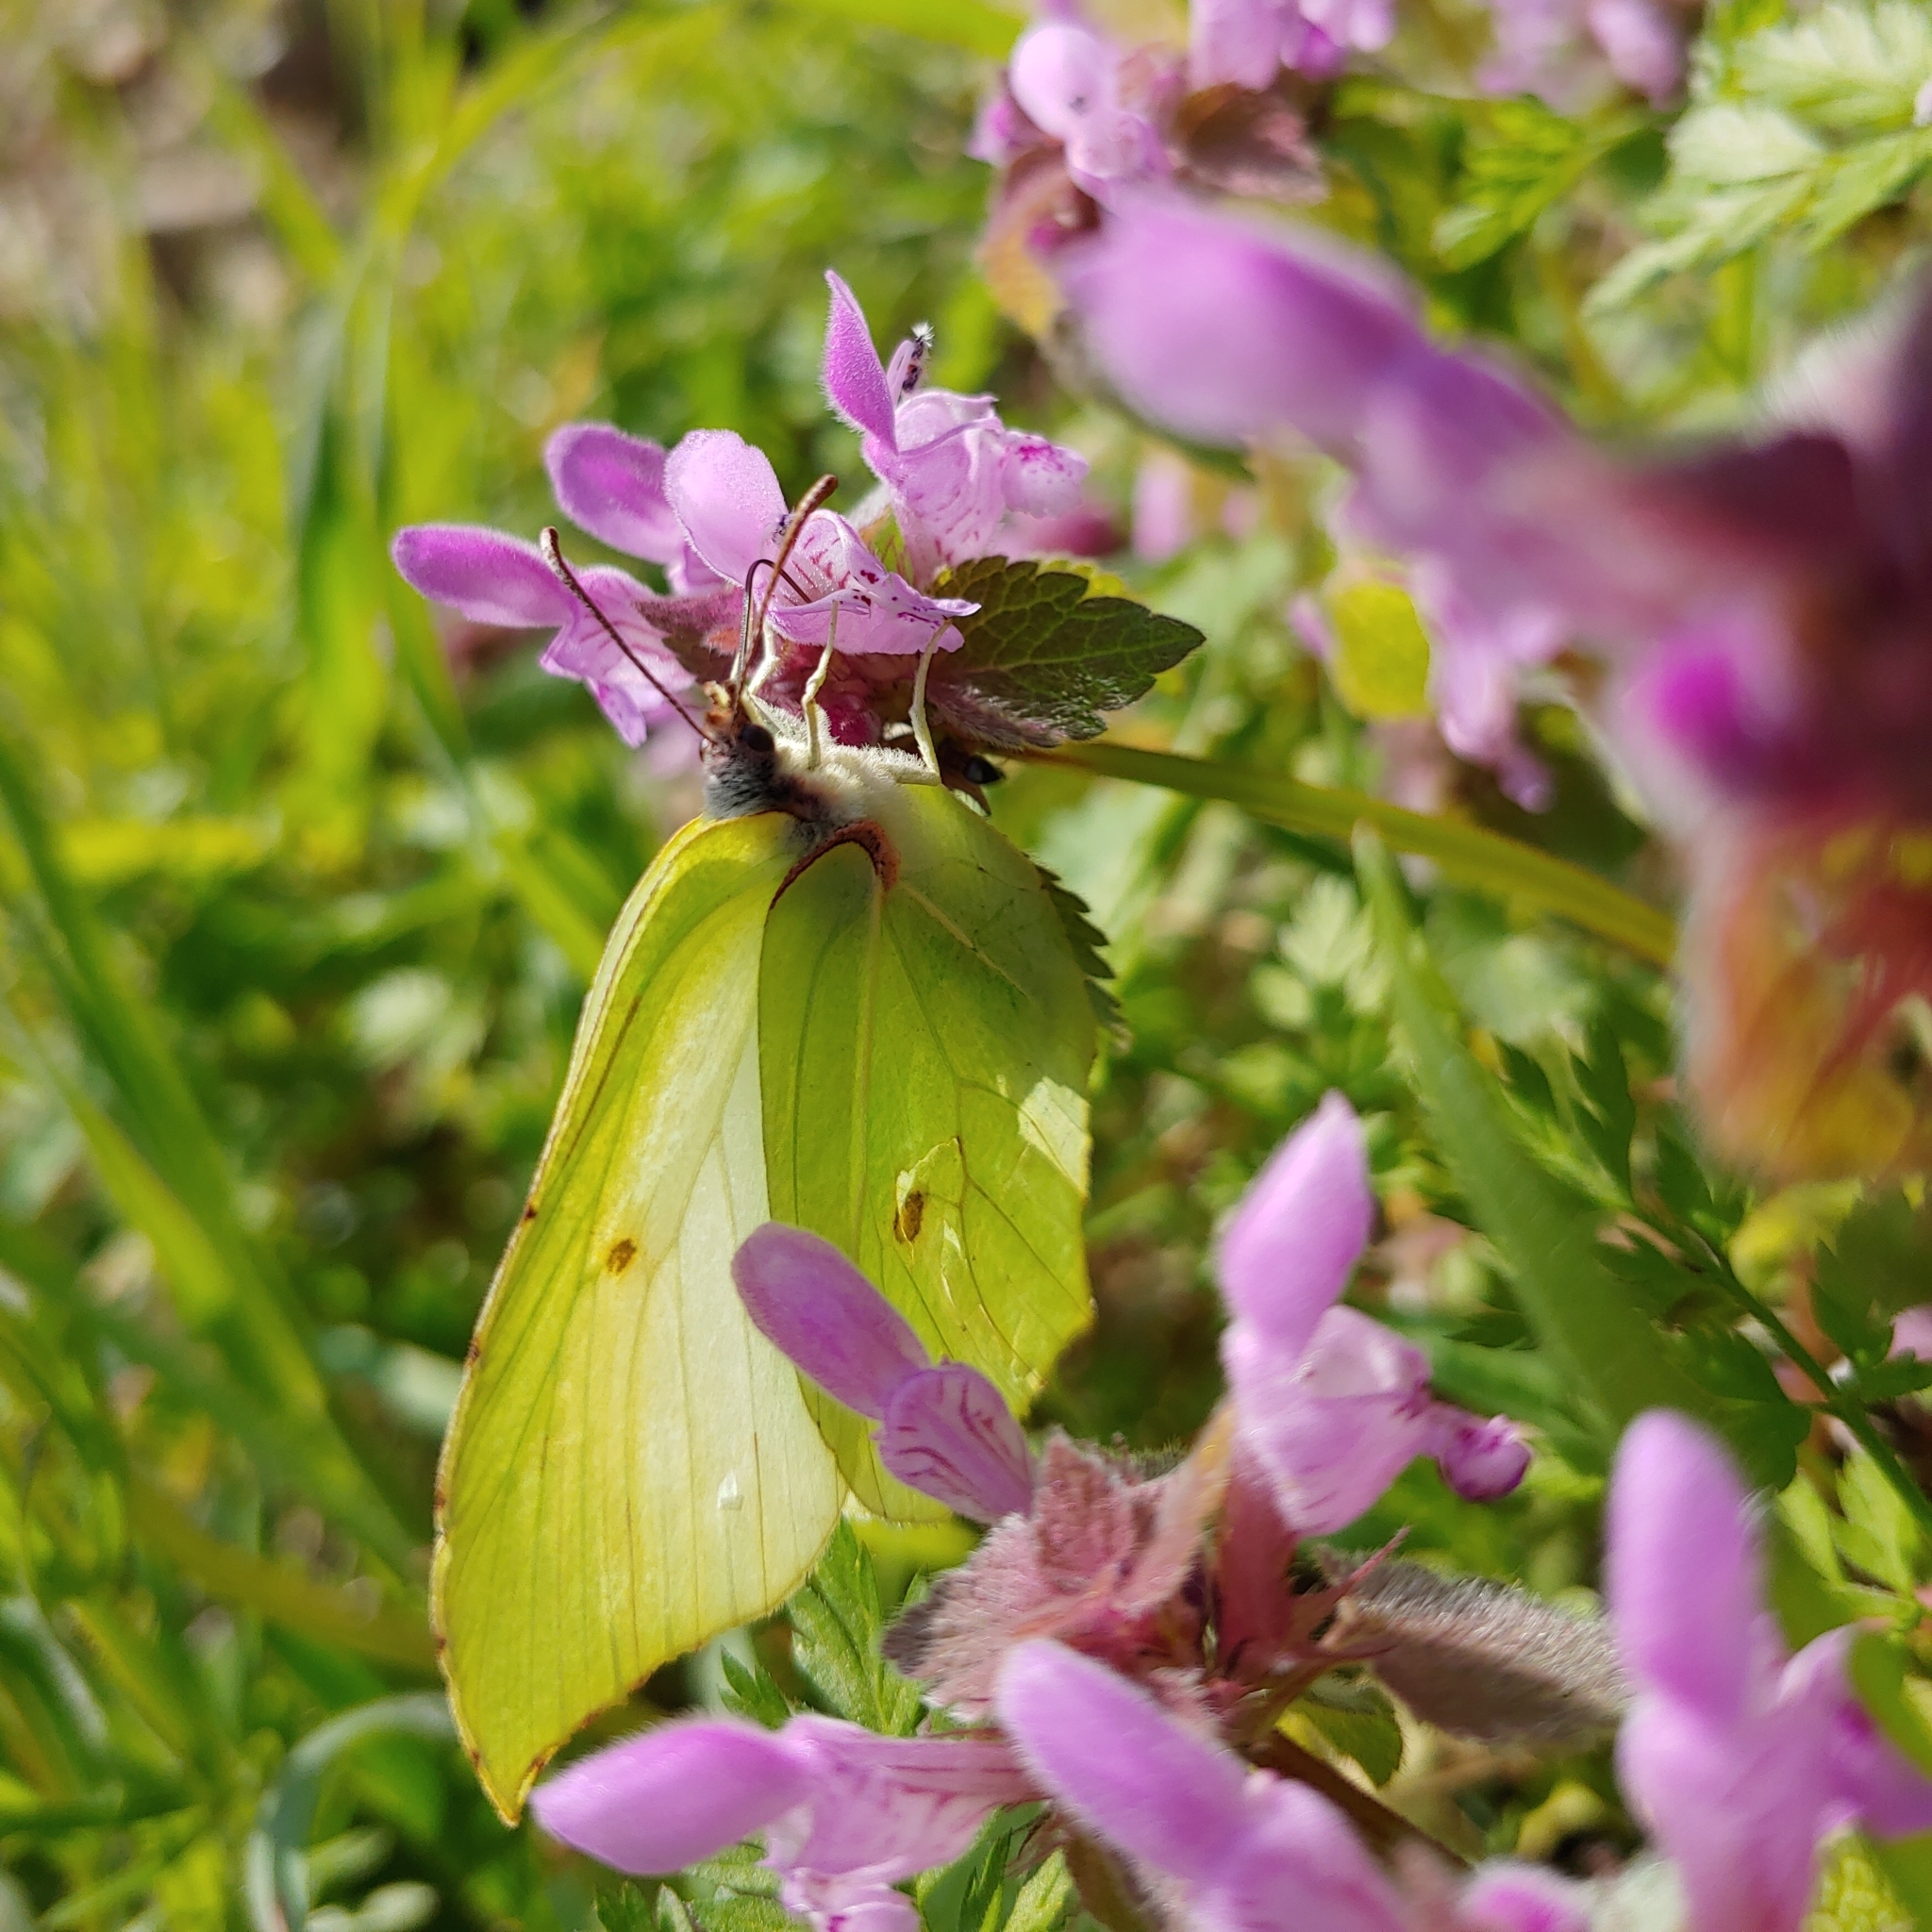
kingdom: Animalia
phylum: Arthropoda
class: Insecta
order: Lepidoptera
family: Pieridae
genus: Gonepteryx
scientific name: Gonepteryx rhamni
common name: Brimstone
